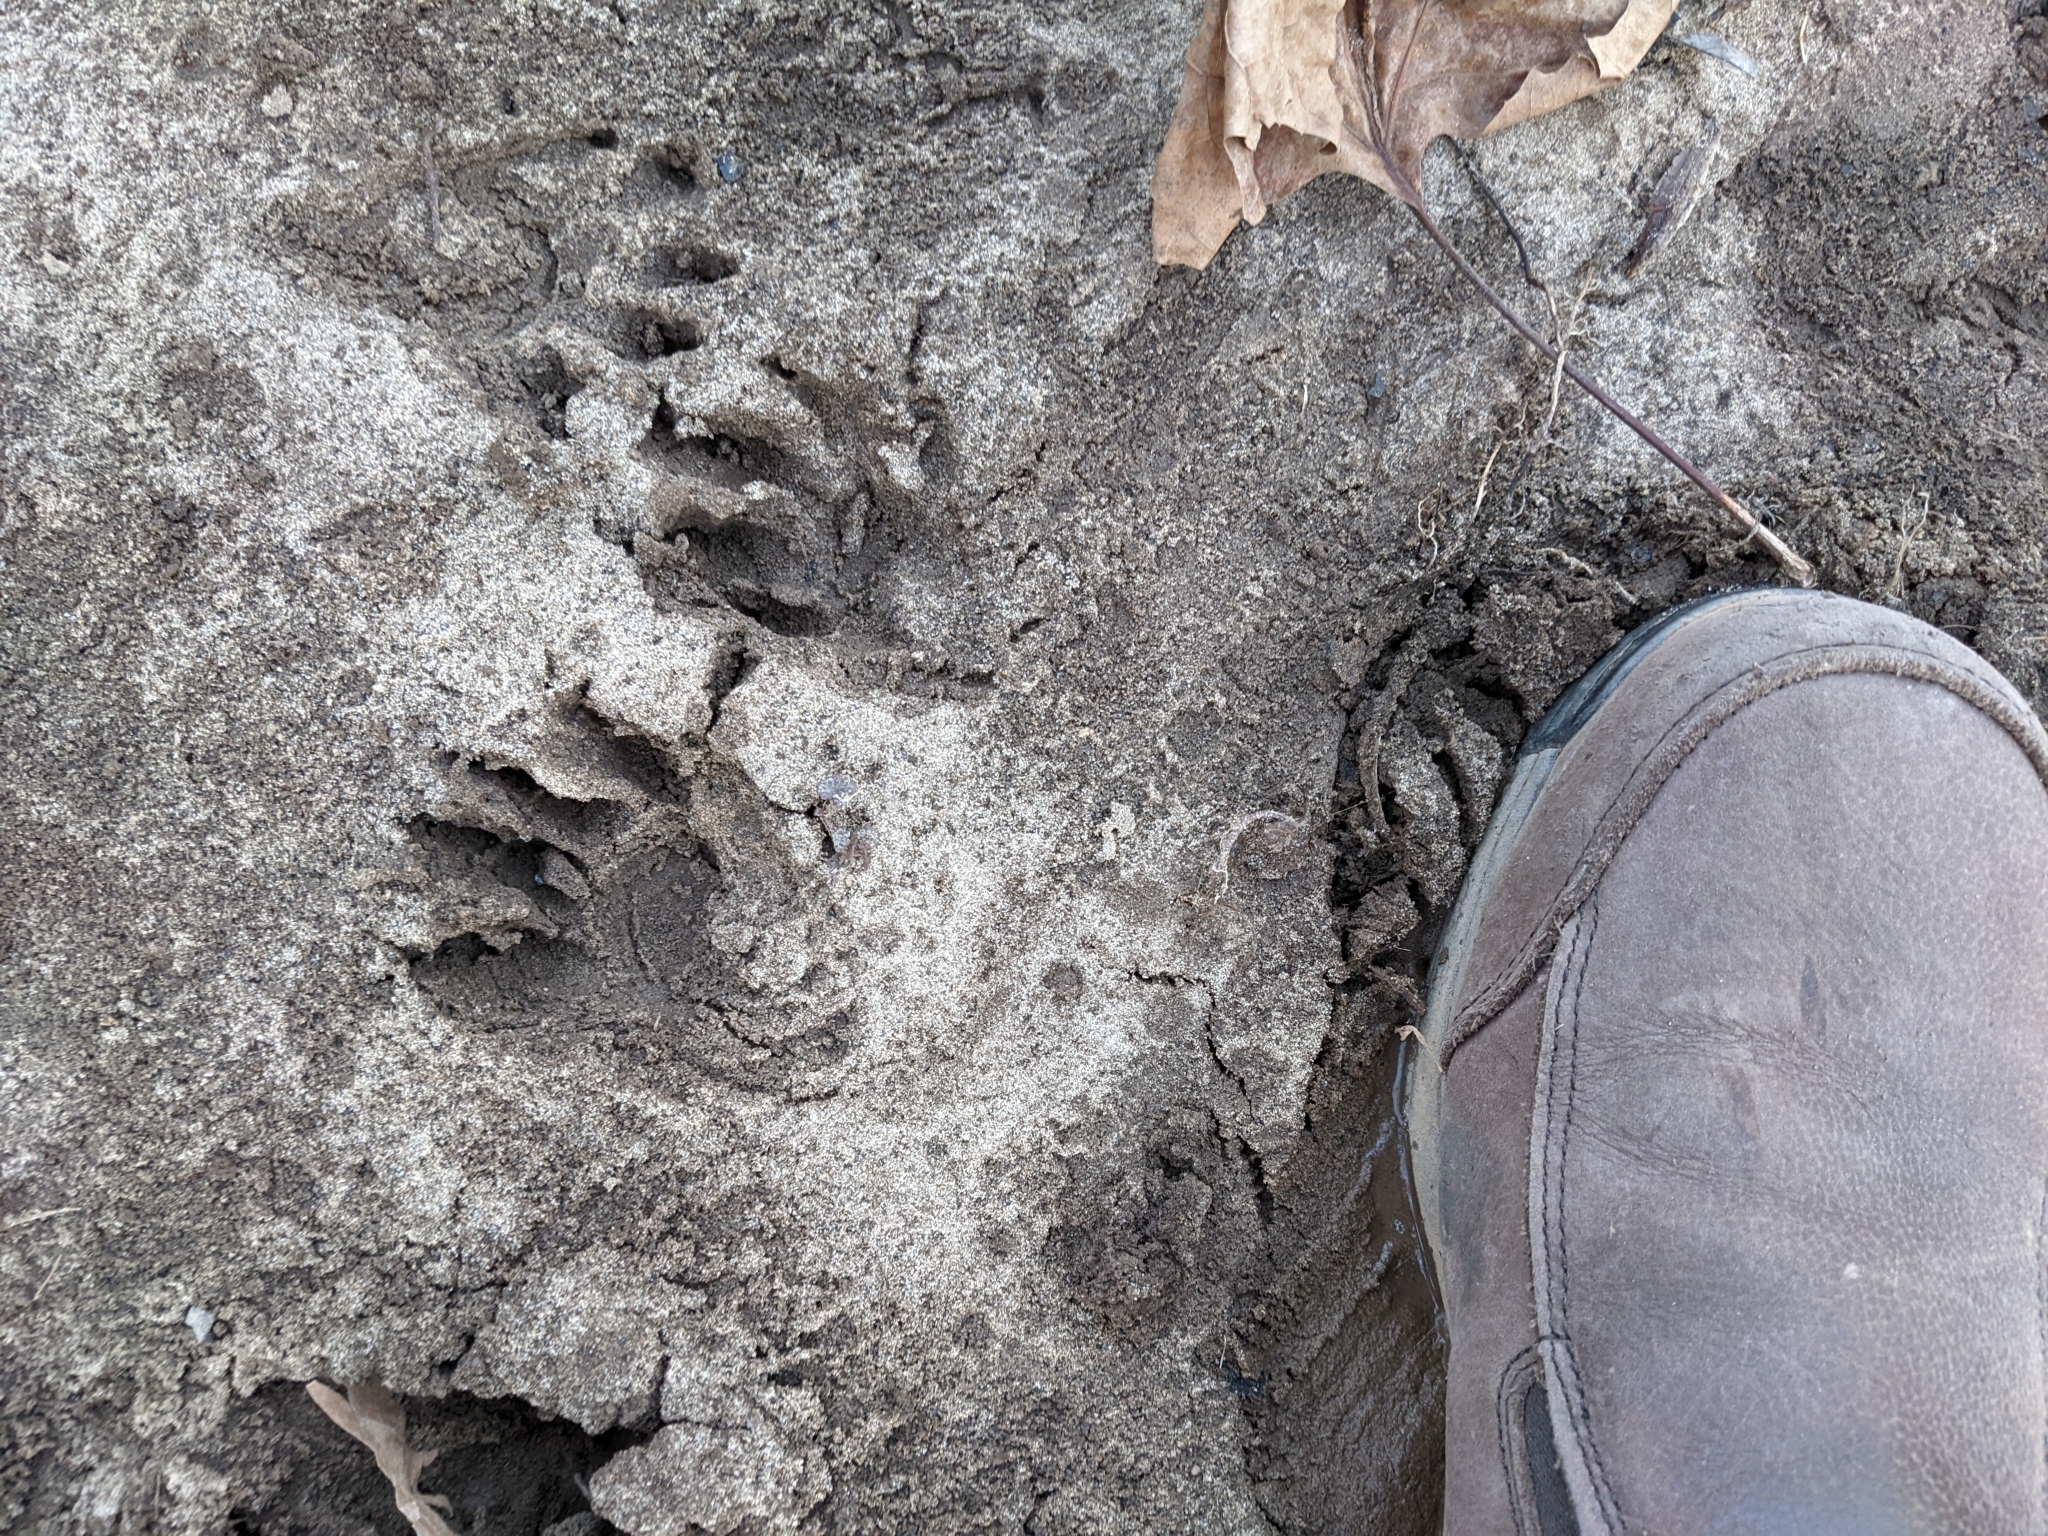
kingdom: Animalia
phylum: Chordata
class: Mammalia
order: Carnivora
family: Procyonidae
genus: Procyon
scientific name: Procyon lotor
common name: Raccoon
